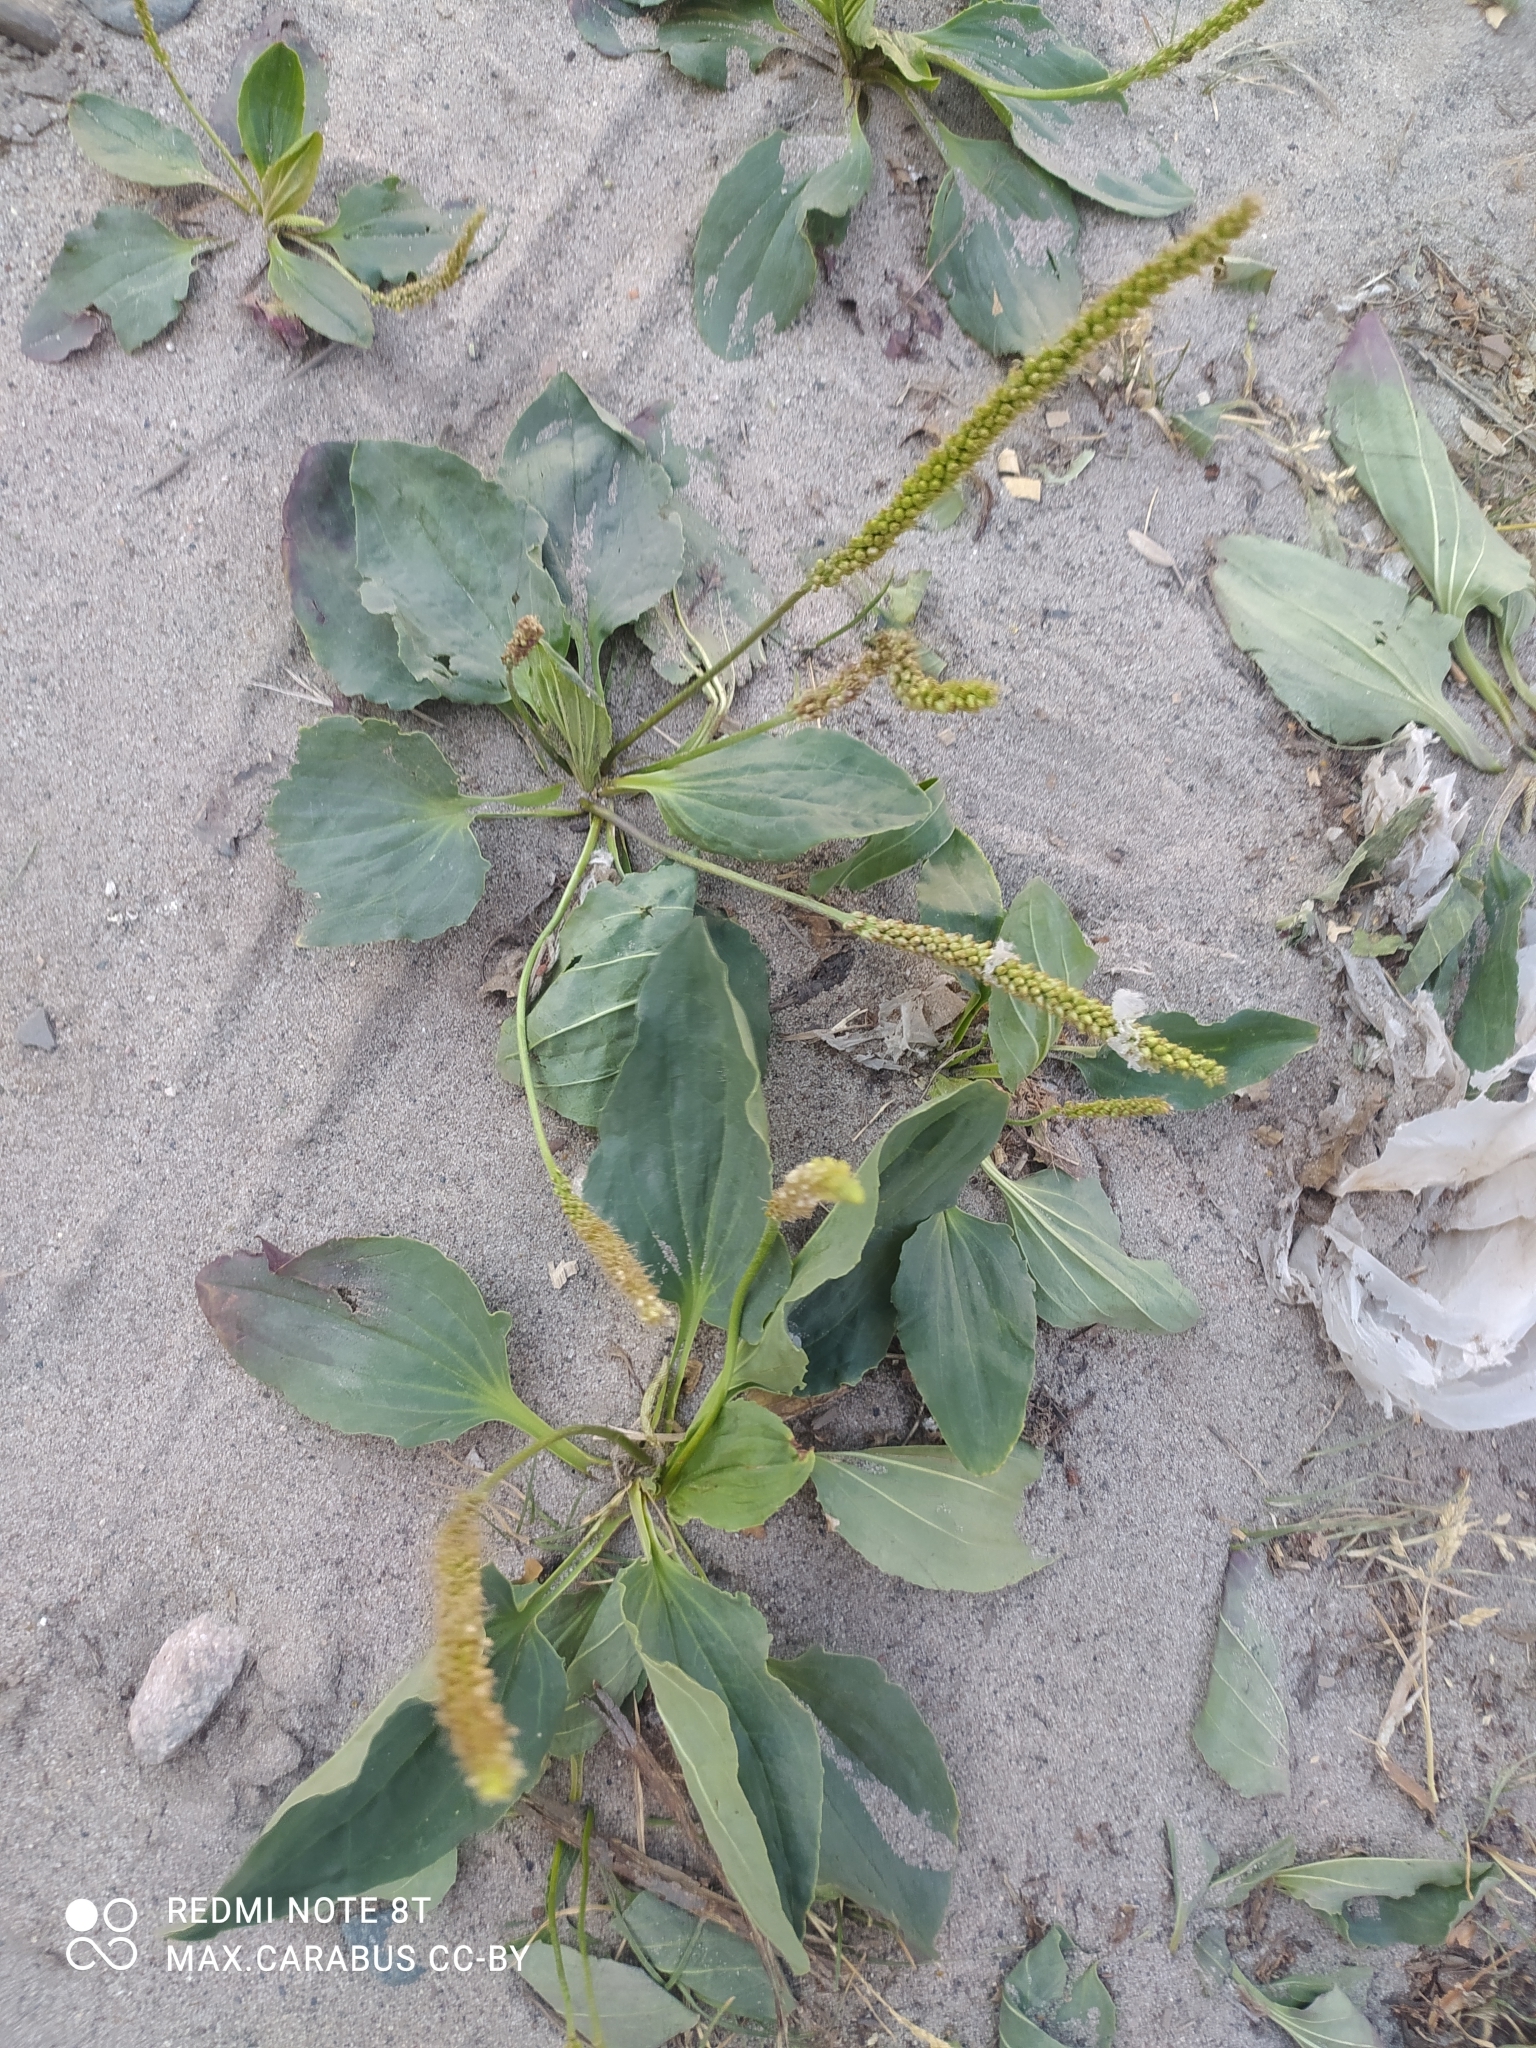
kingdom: Plantae
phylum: Tracheophyta
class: Magnoliopsida
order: Lamiales
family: Plantaginaceae
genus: Plantago
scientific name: Plantago major
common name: Common plantain
